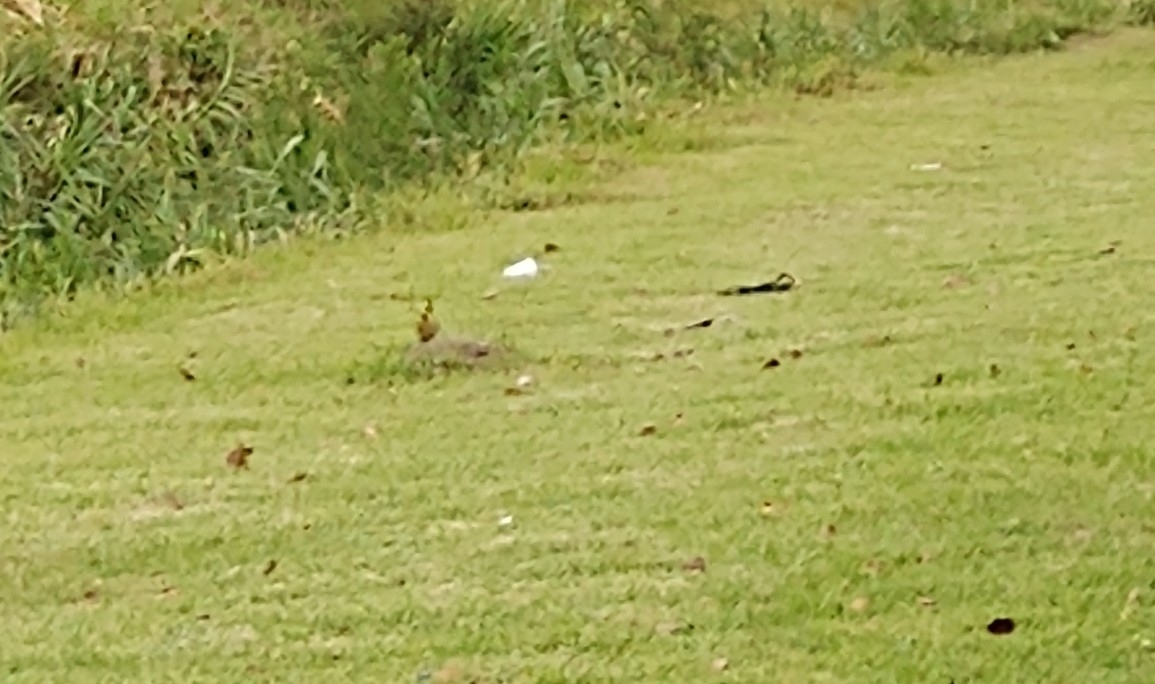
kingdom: Animalia
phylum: Chordata
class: Aves
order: Piciformes
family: Picidae
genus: Colaptes
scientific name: Colaptes melanochloros
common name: Green-barred woodpecker
